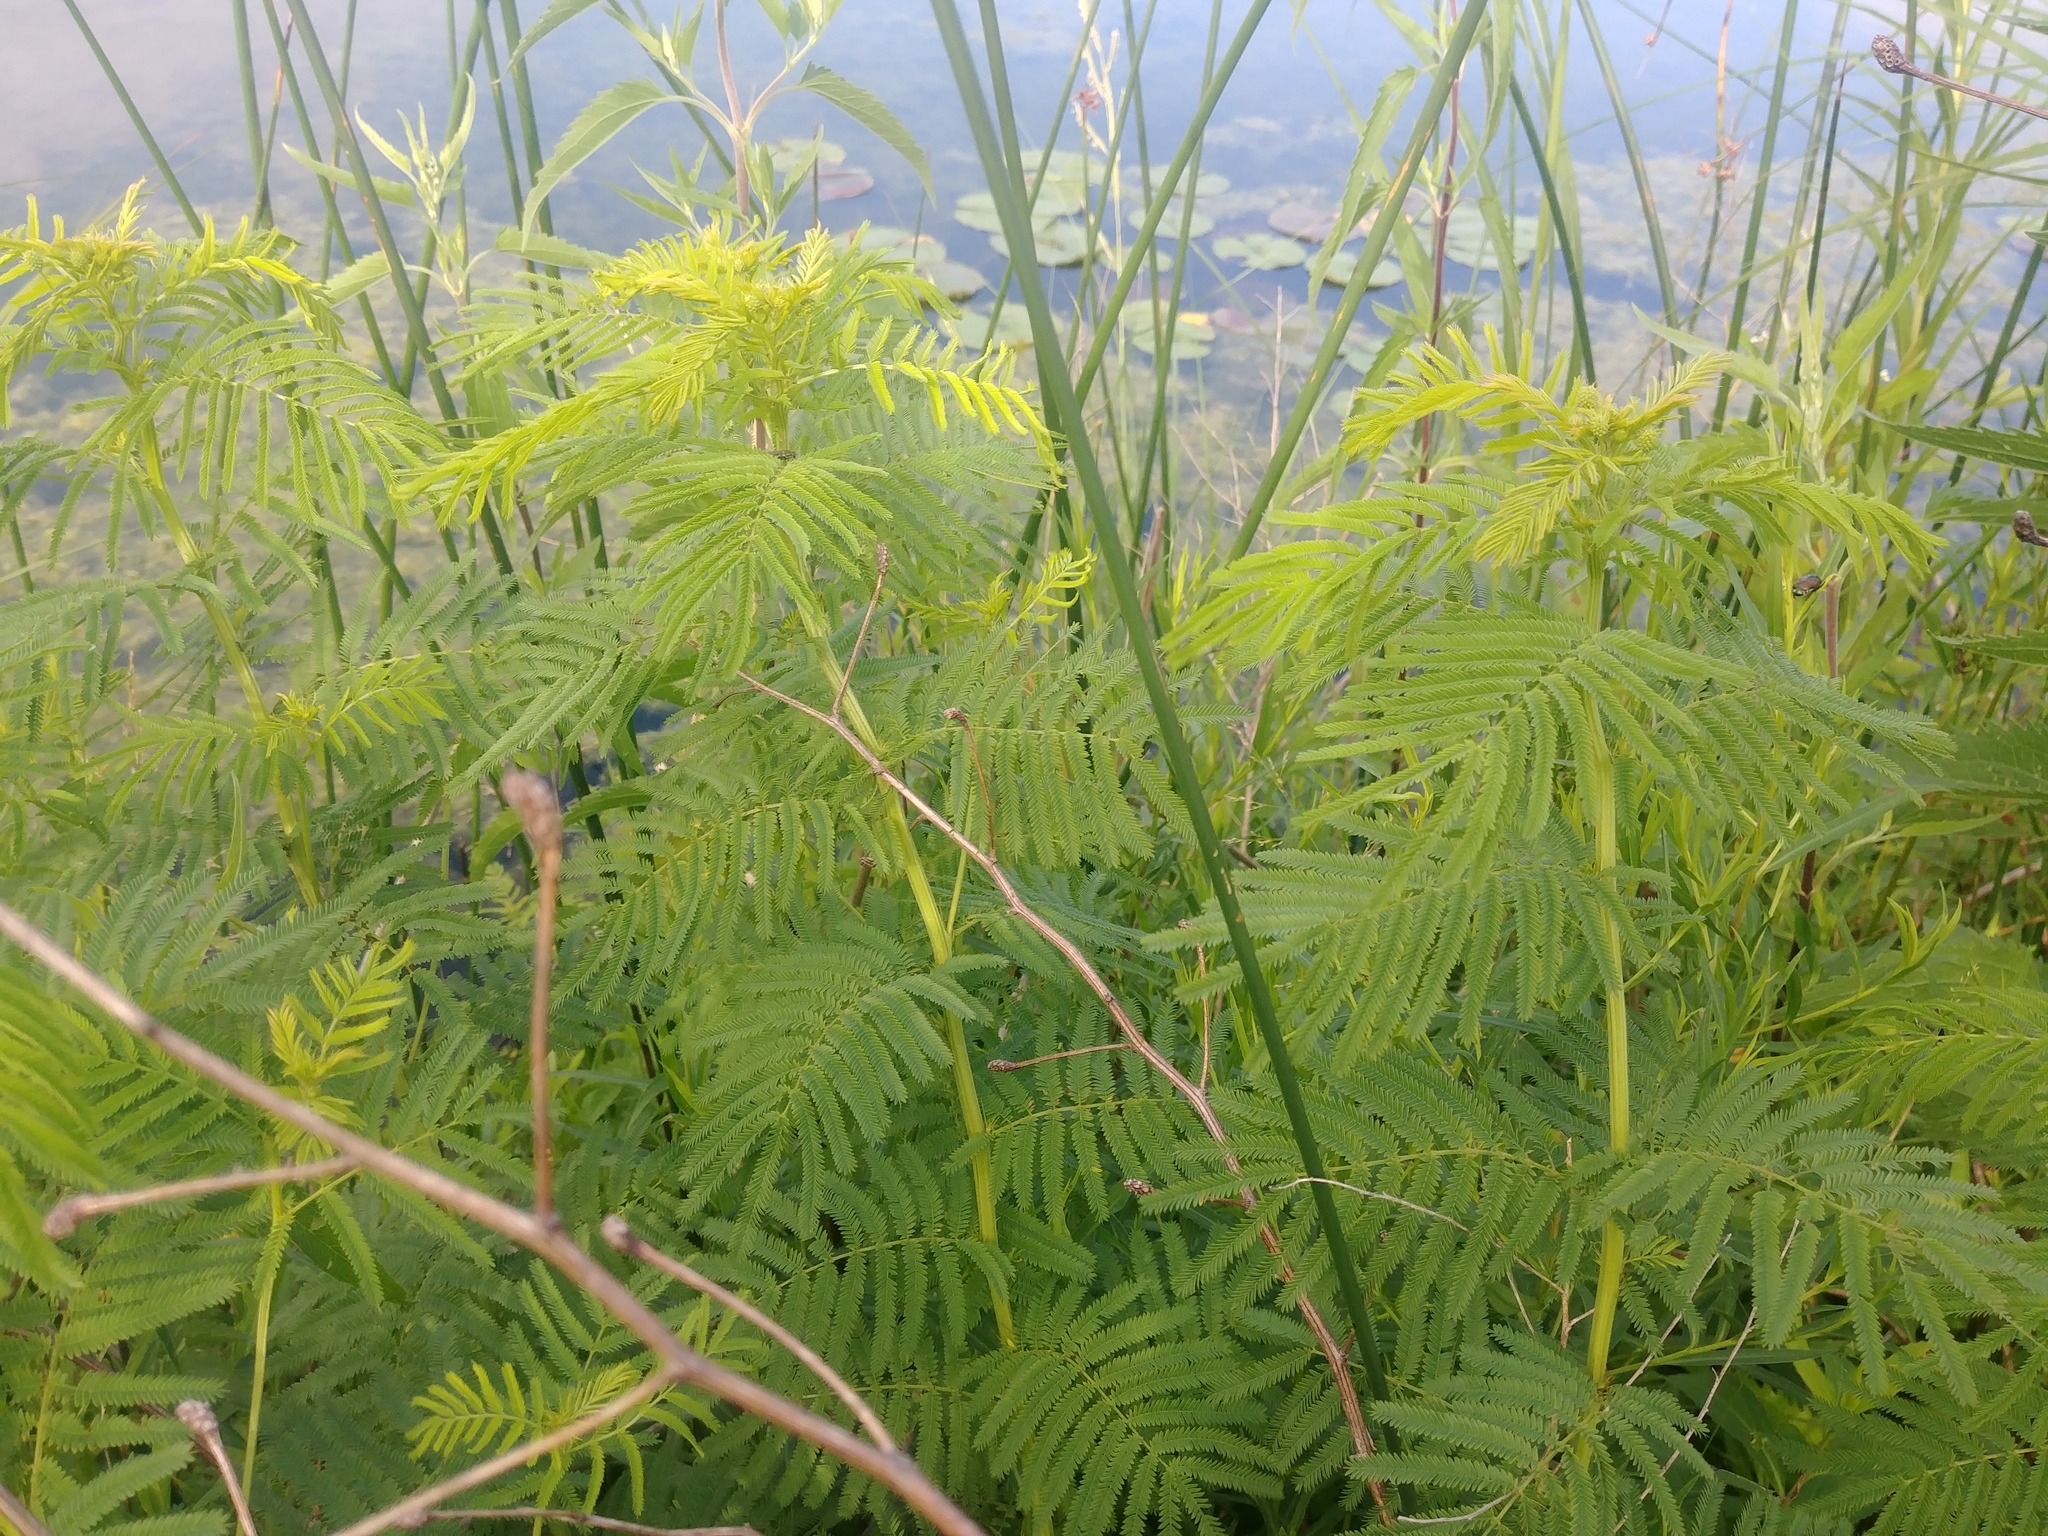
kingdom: Plantae
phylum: Tracheophyta
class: Magnoliopsida
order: Fabales
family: Fabaceae
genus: Desmanthus
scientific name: Desmanthus illinoensis
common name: Illinois bundle-flower
